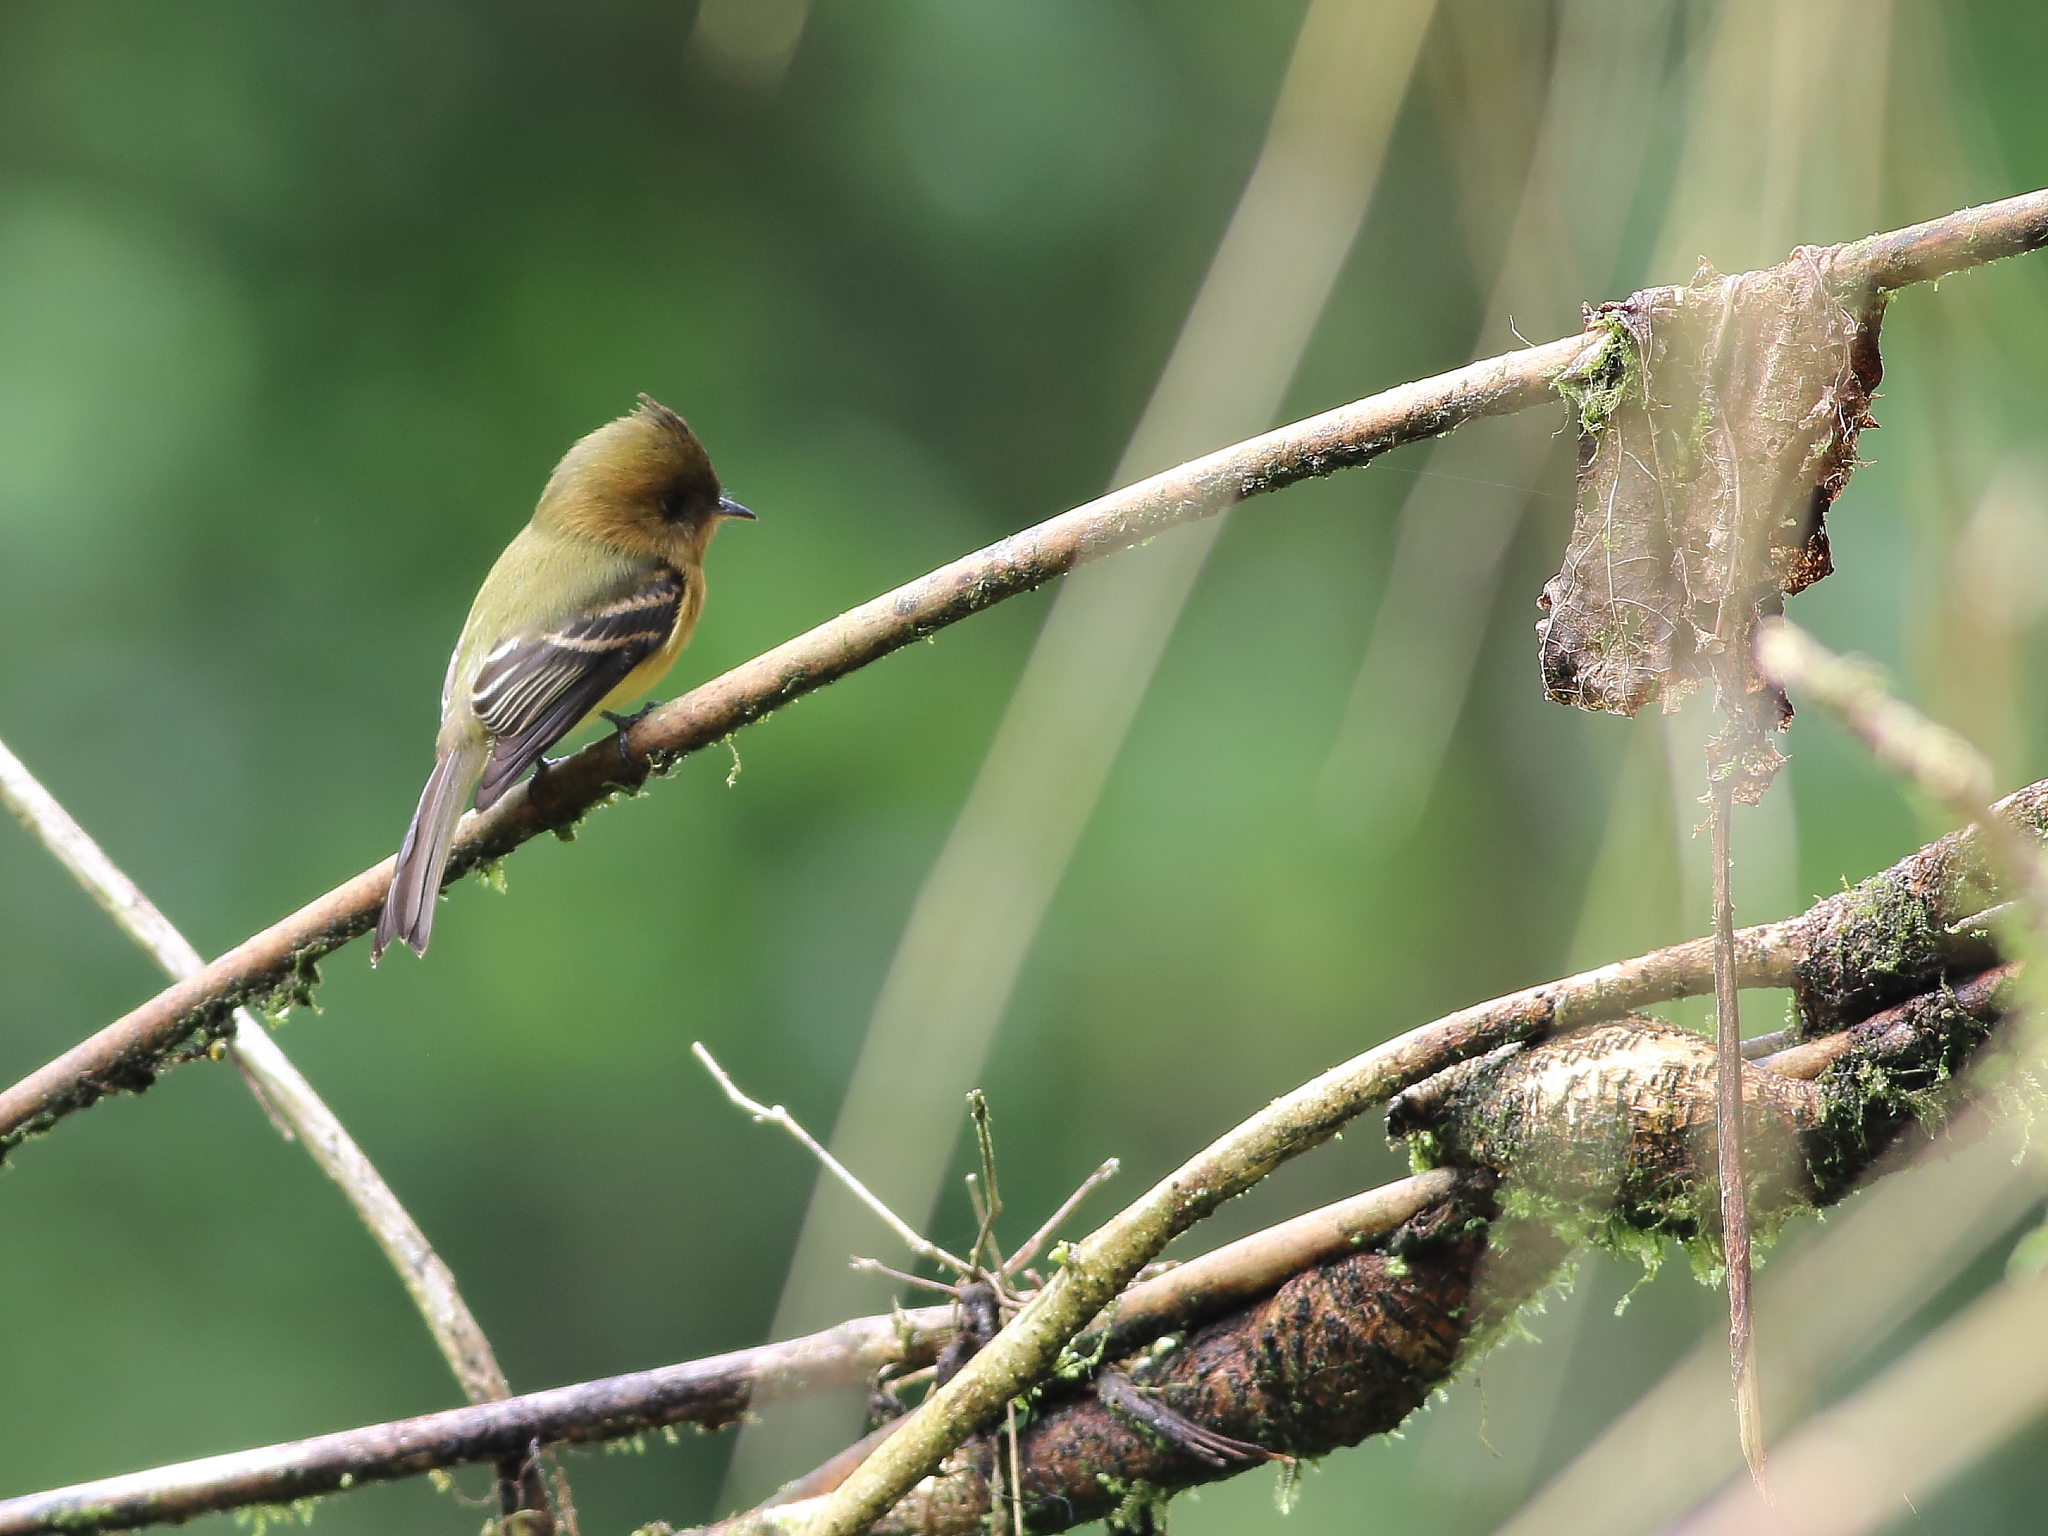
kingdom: Animalia
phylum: Chordata
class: Aves
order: Passeriformes
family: Tyrannidae
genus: Mitrephanes
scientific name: Mitrephanes phaeocercus
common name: Northern tufted flycatcher
